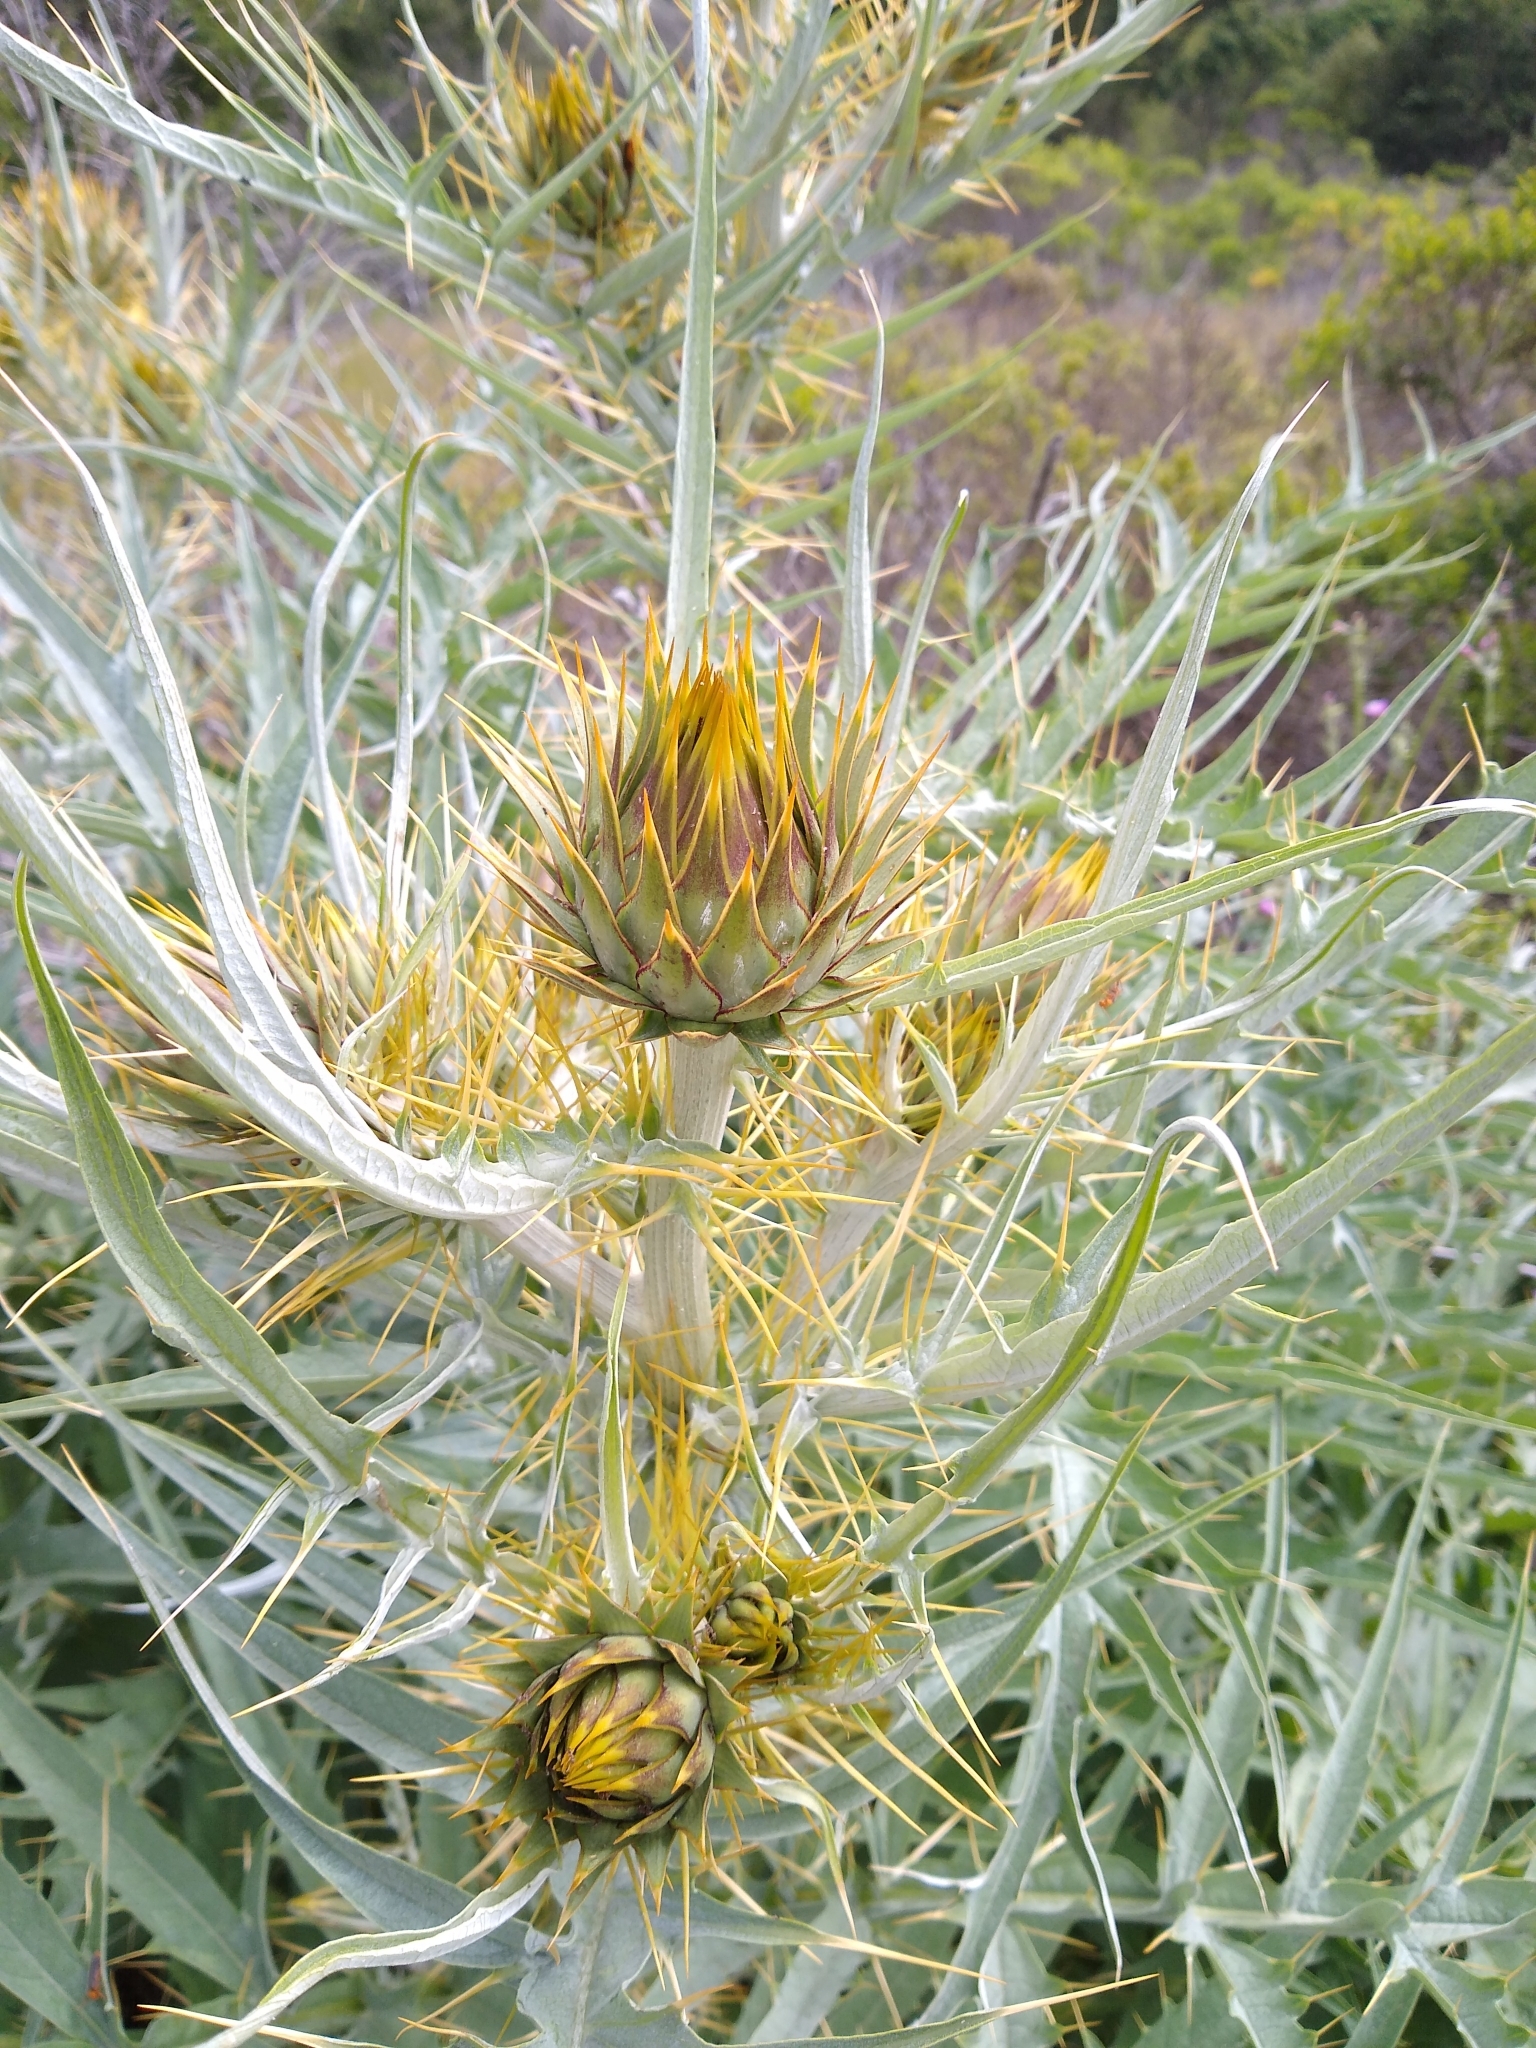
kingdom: Plantae
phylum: Tracheophyta
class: Magnoliopsida
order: Asterales
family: Asteraceae
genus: Cynara
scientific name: Cynara cardunculus
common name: Globe artichoke
